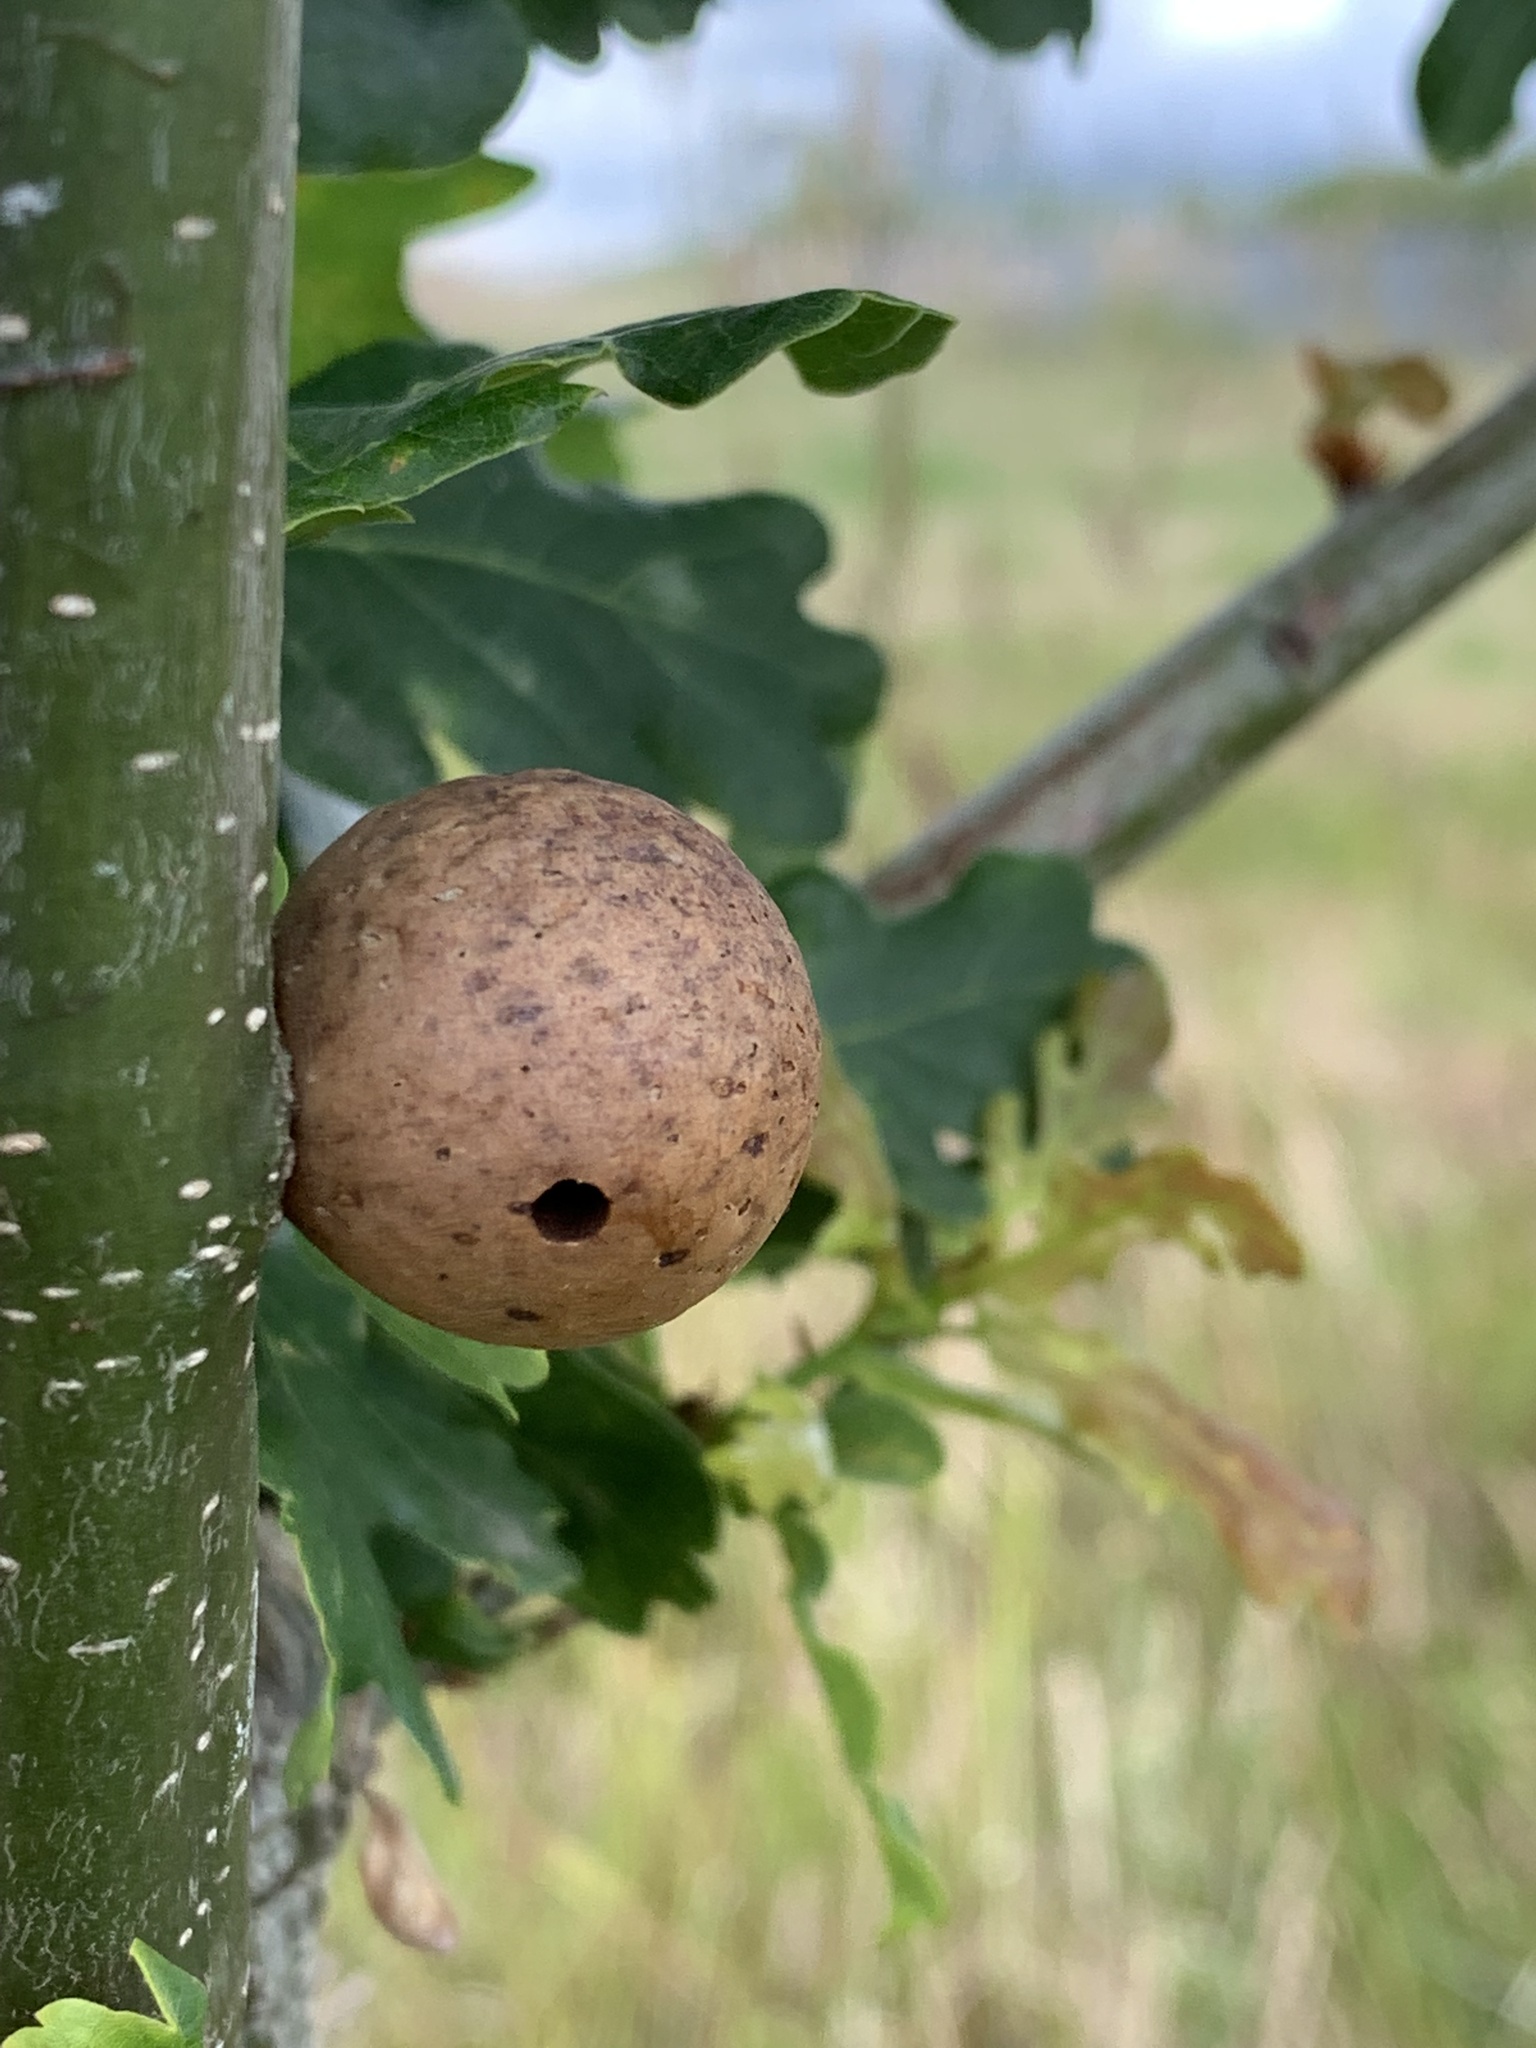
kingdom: Animalia
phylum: Arthropoda
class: Insecta
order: Hymenoptera
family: Cynipidae
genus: Andricus
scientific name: Andricus kollari
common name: Marble gall
